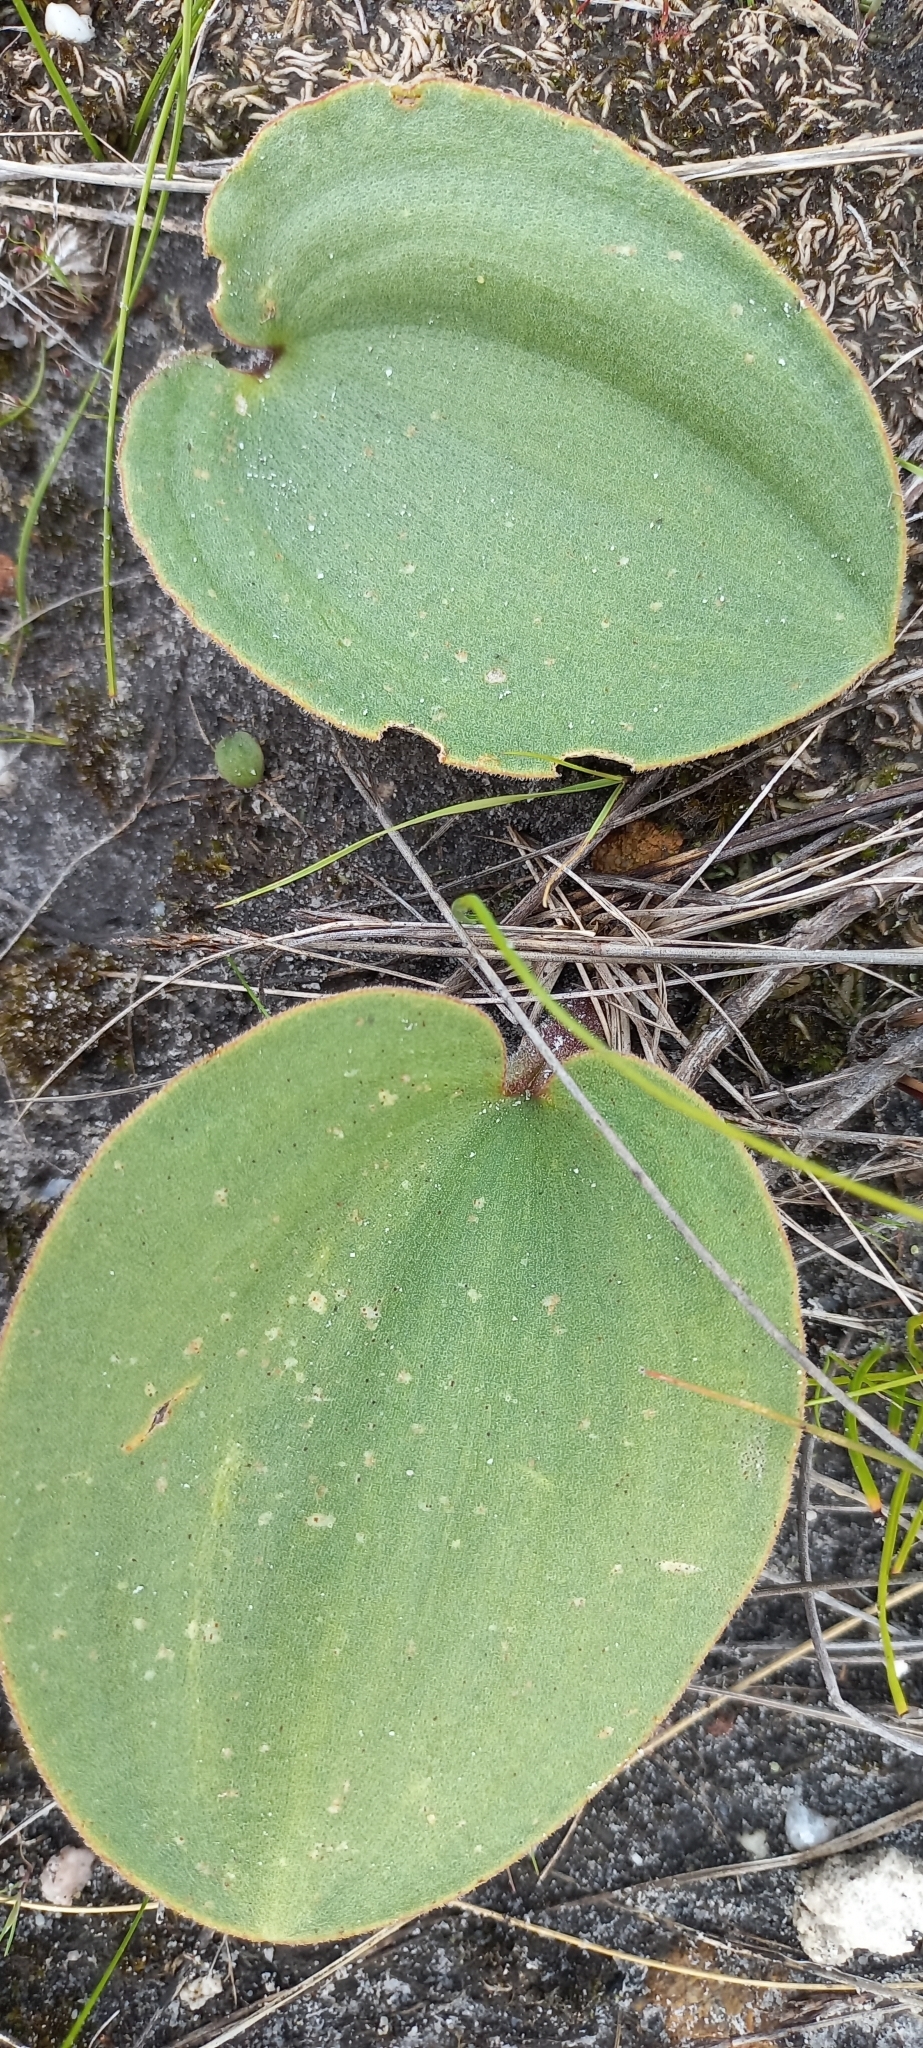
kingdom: Plantae
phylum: Tracheophyta
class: Liliopsida
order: Asparagales
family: Asparagaceae
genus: Eriospermum
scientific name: Eriospermum capense
